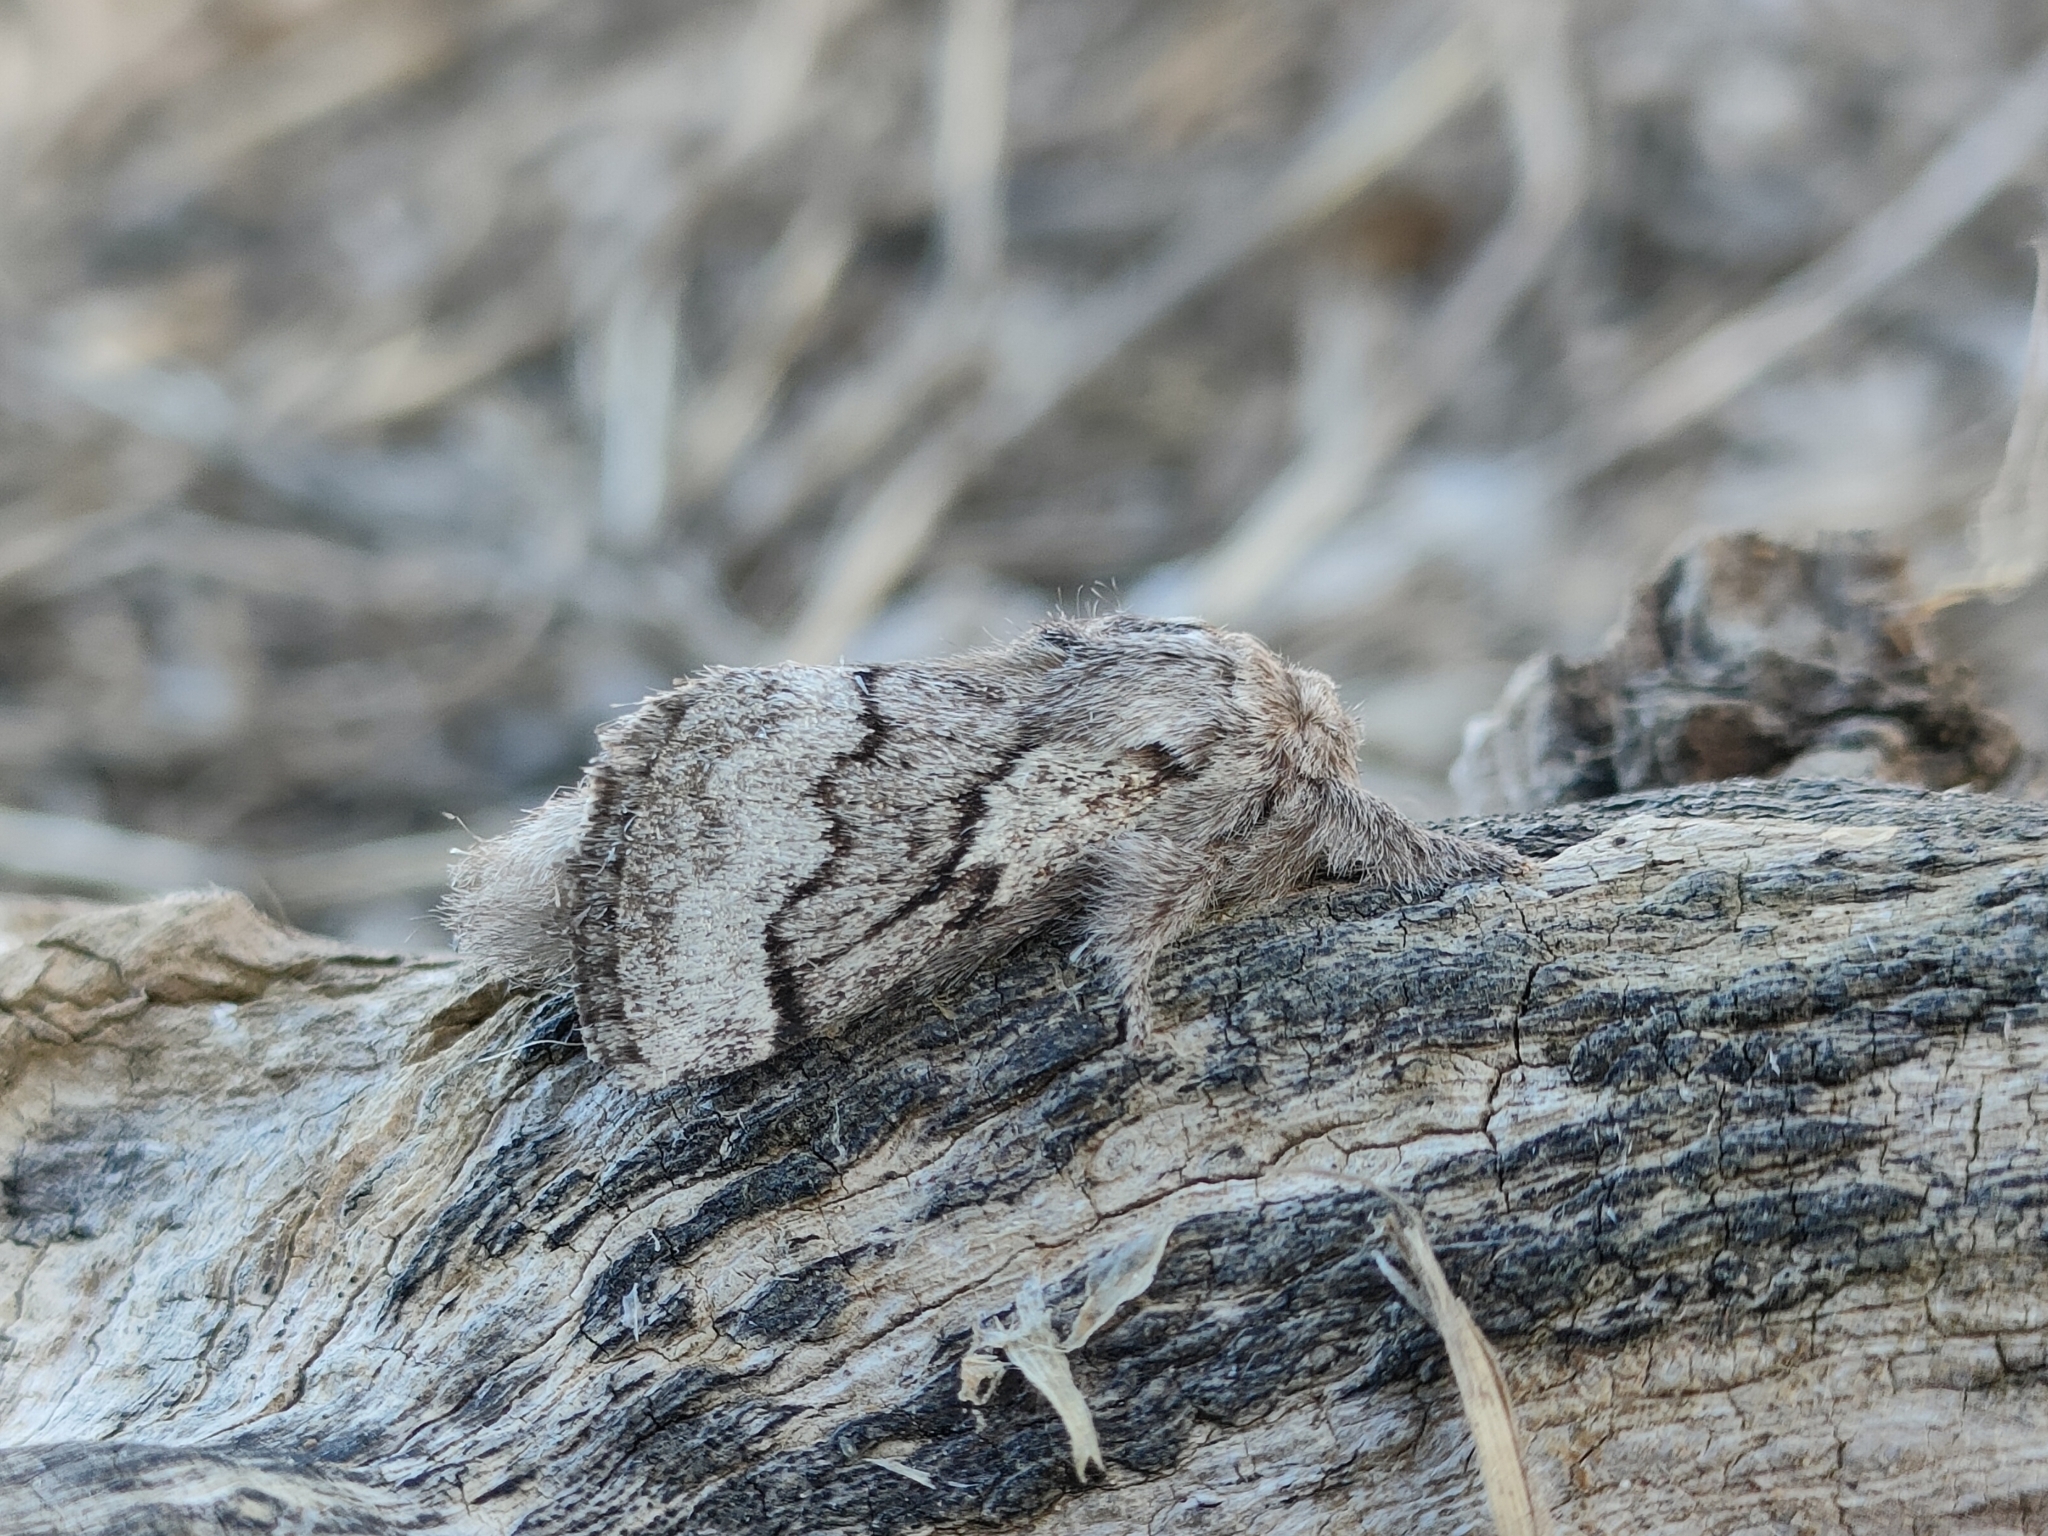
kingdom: Animalia
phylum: Arthropoda
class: Insecta
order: Lepidoptera
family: Lasiocampidae
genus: Trichiura
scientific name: Trichiura crataegi
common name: Pale eggar
